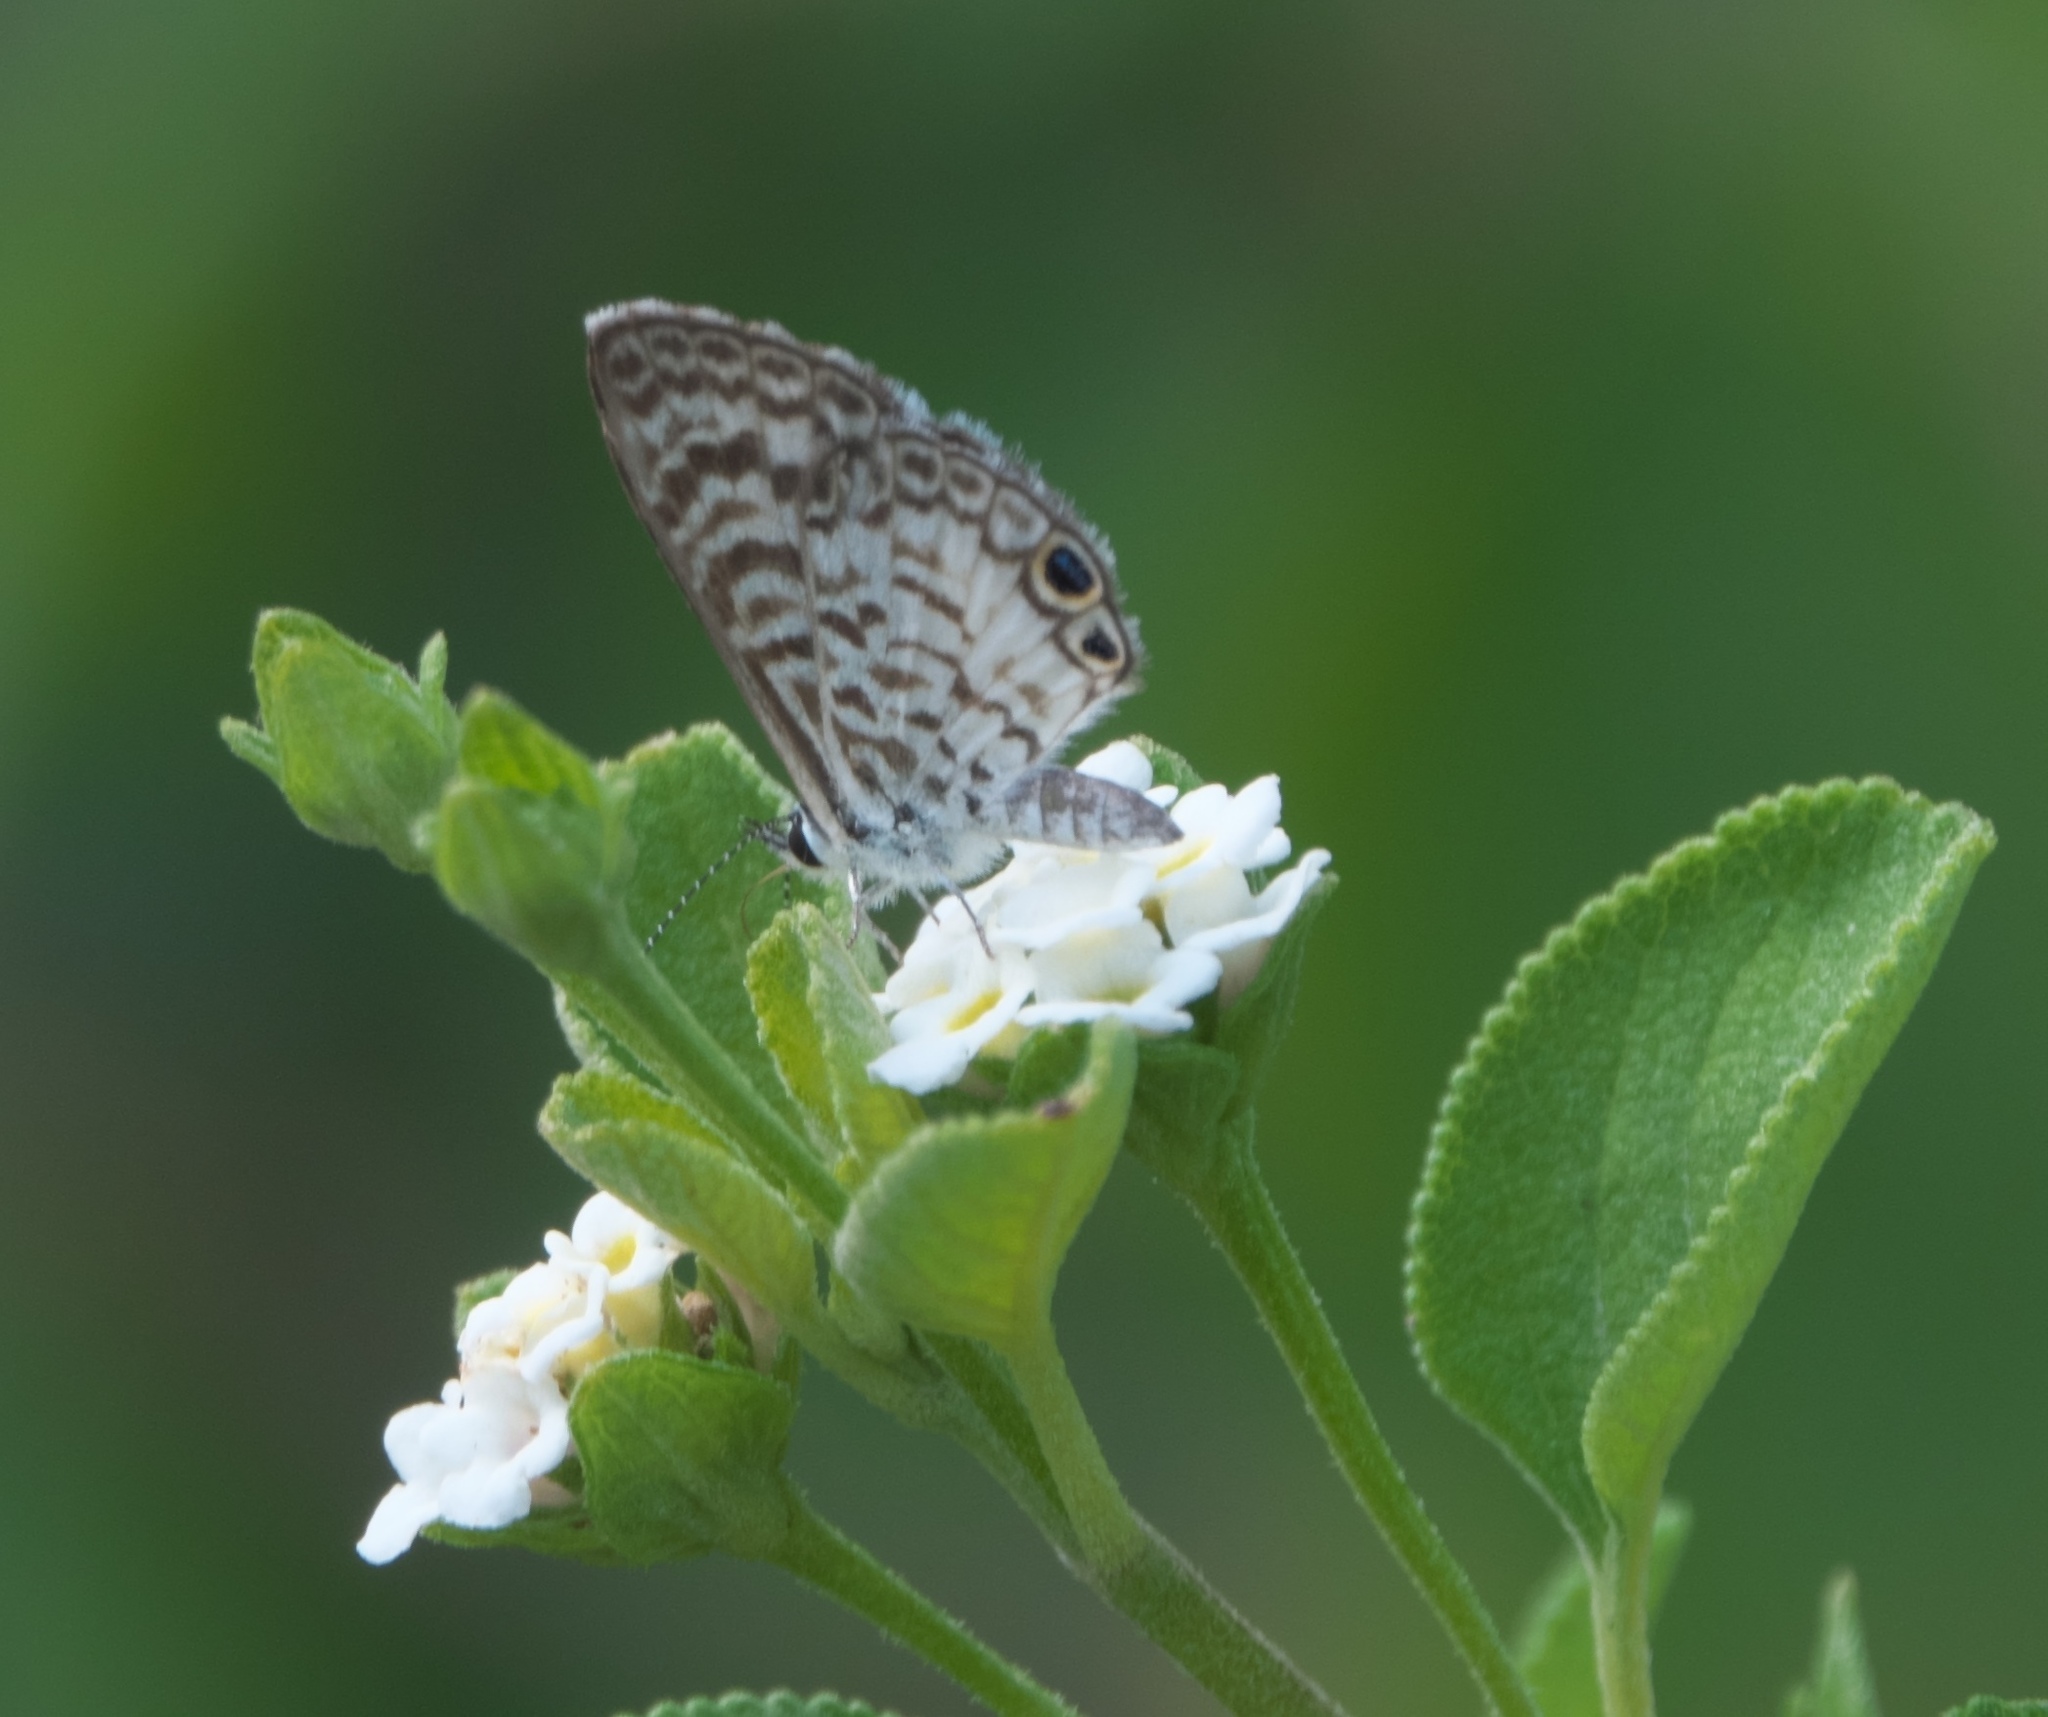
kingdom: Animalia
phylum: Arthropoda
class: Insecta
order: Lepidoptera
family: Lycaenidae
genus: Leptotes
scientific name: Leptotes cassius
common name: Cassius blue
